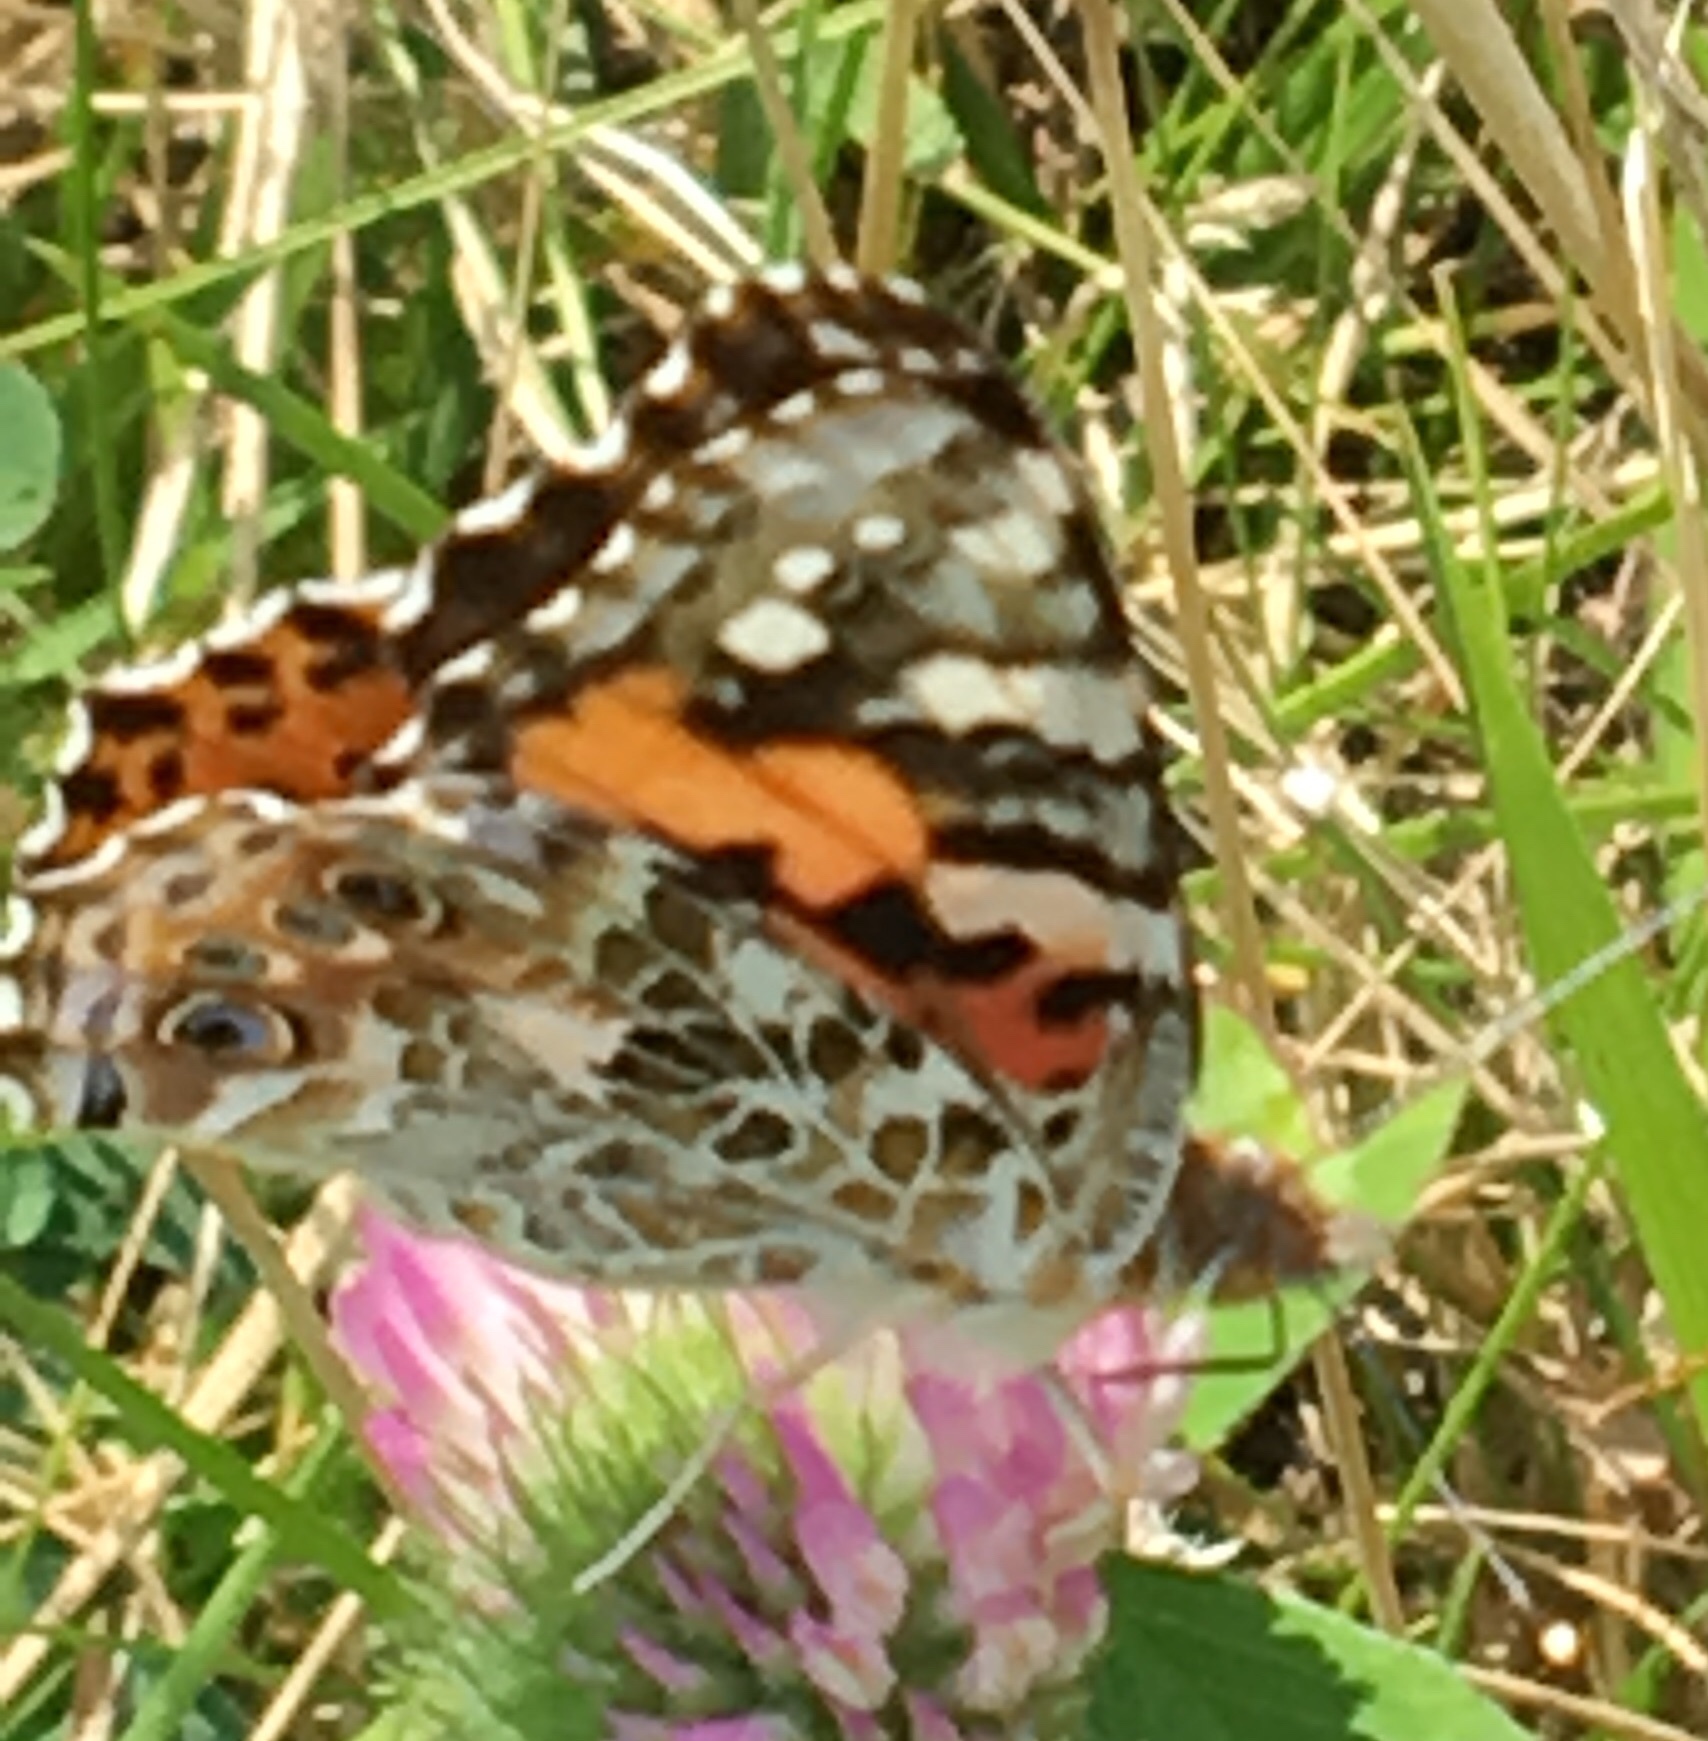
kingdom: Animalia
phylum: Arthropoda
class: Insecta
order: Lepidoptera
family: Nymphalidae
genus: Vanessa
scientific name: Vanessa cardui
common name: Painted lady
